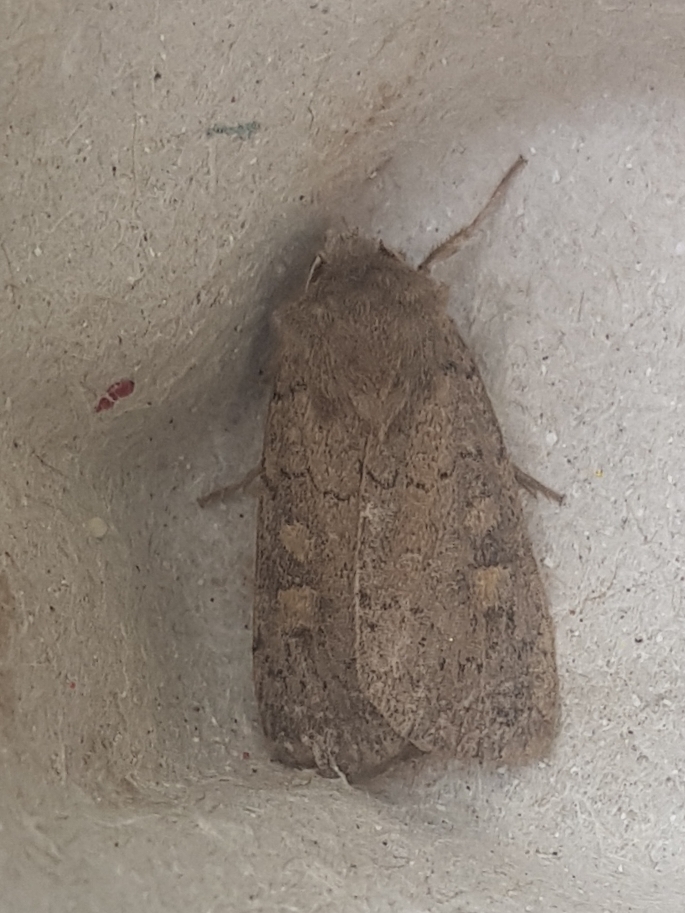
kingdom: Animalia
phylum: Arthropoda
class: Insecta
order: Lepidoptera
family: Noctuidae
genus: Xestia
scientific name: Xestia xanthographa
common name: Square-spot rustic
